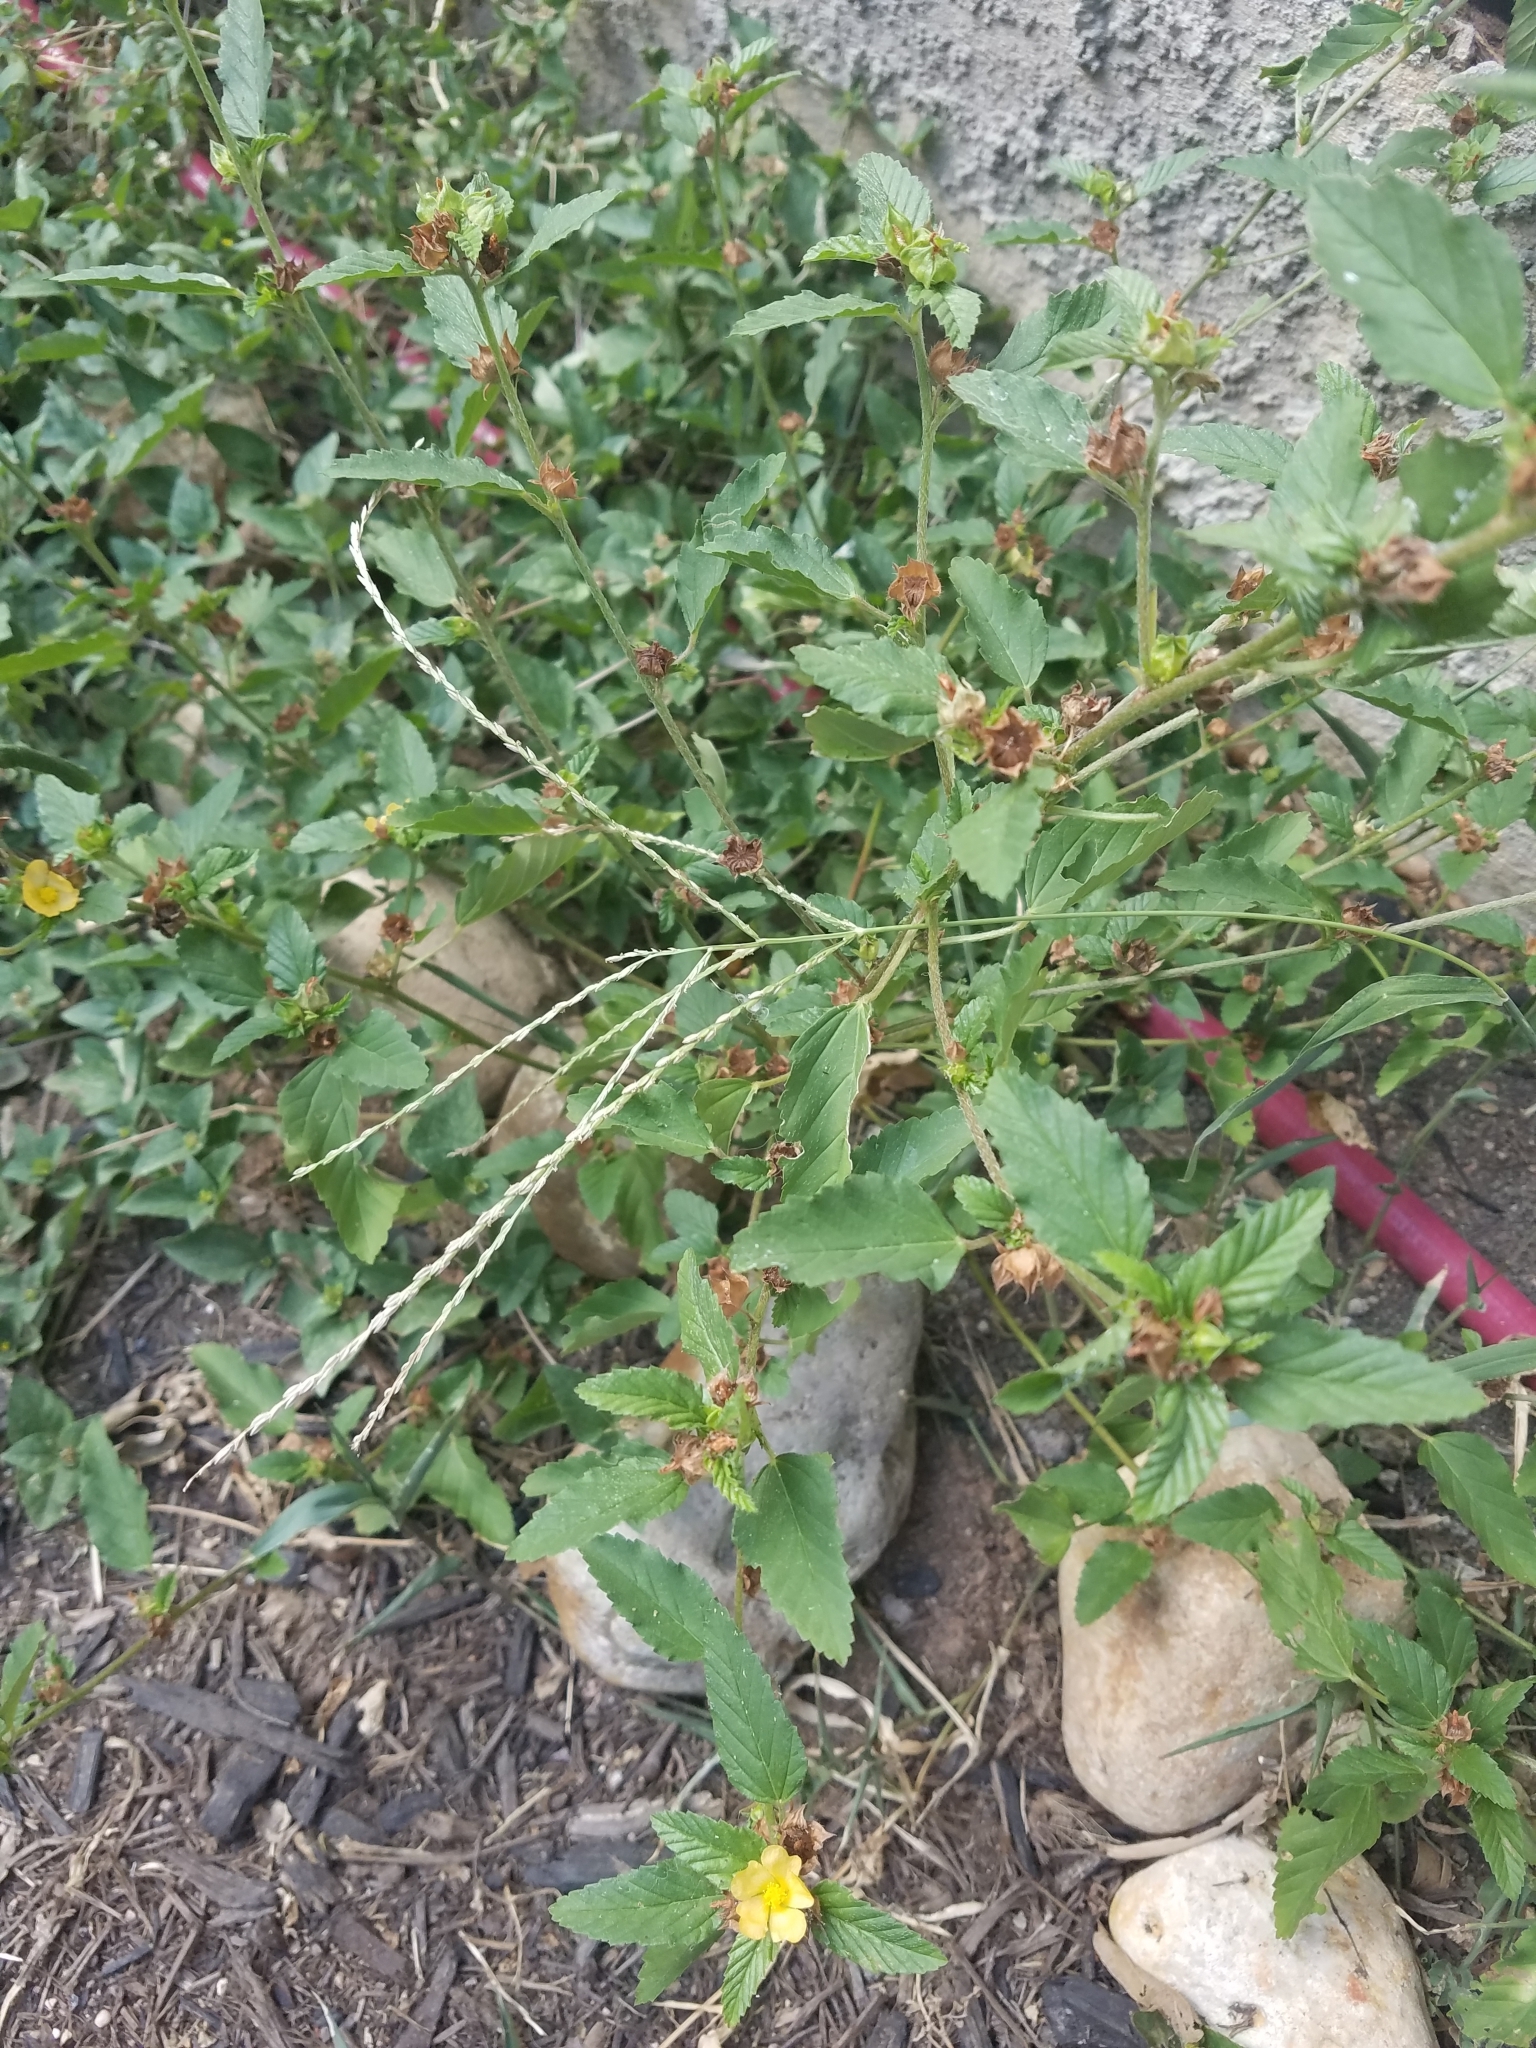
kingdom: Plantae
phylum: Tracheophyta
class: Magnoliopsida
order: Malvales
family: Malvaceae
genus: Malvastrum
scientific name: Malvastrum coromandelianum
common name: Threelobe false mallow
